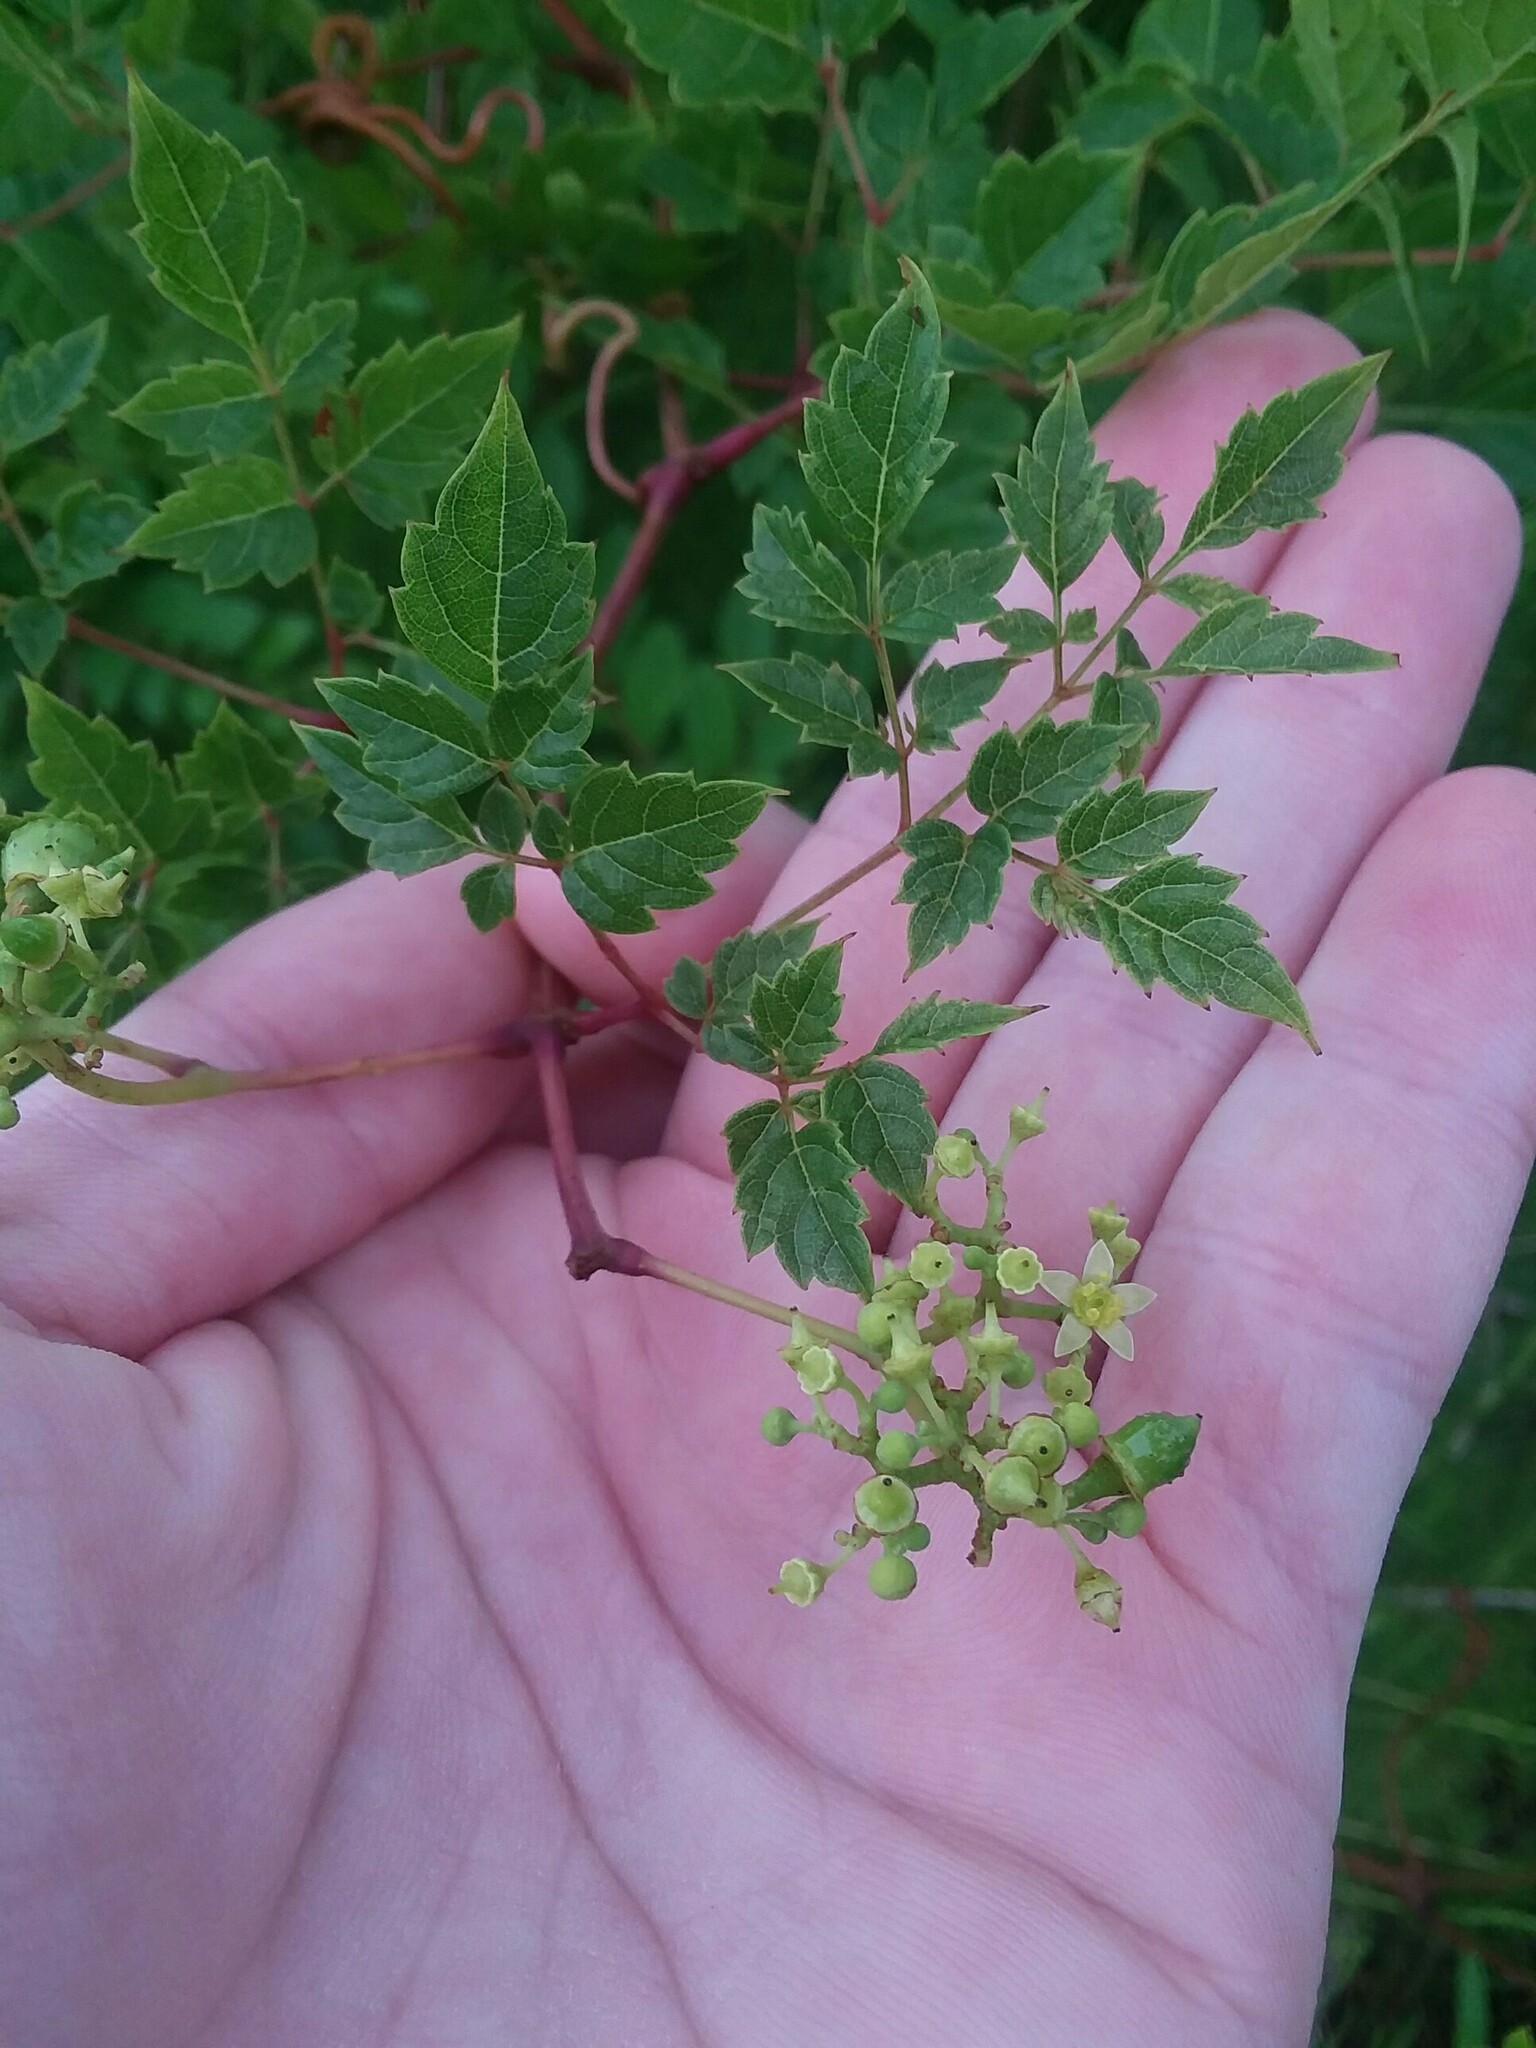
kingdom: Plantae
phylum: Tracheophyta
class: Magnoliopsida
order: Vitales
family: Vitaceae
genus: Nekemias
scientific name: Nekemias arborea
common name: Peppervine
